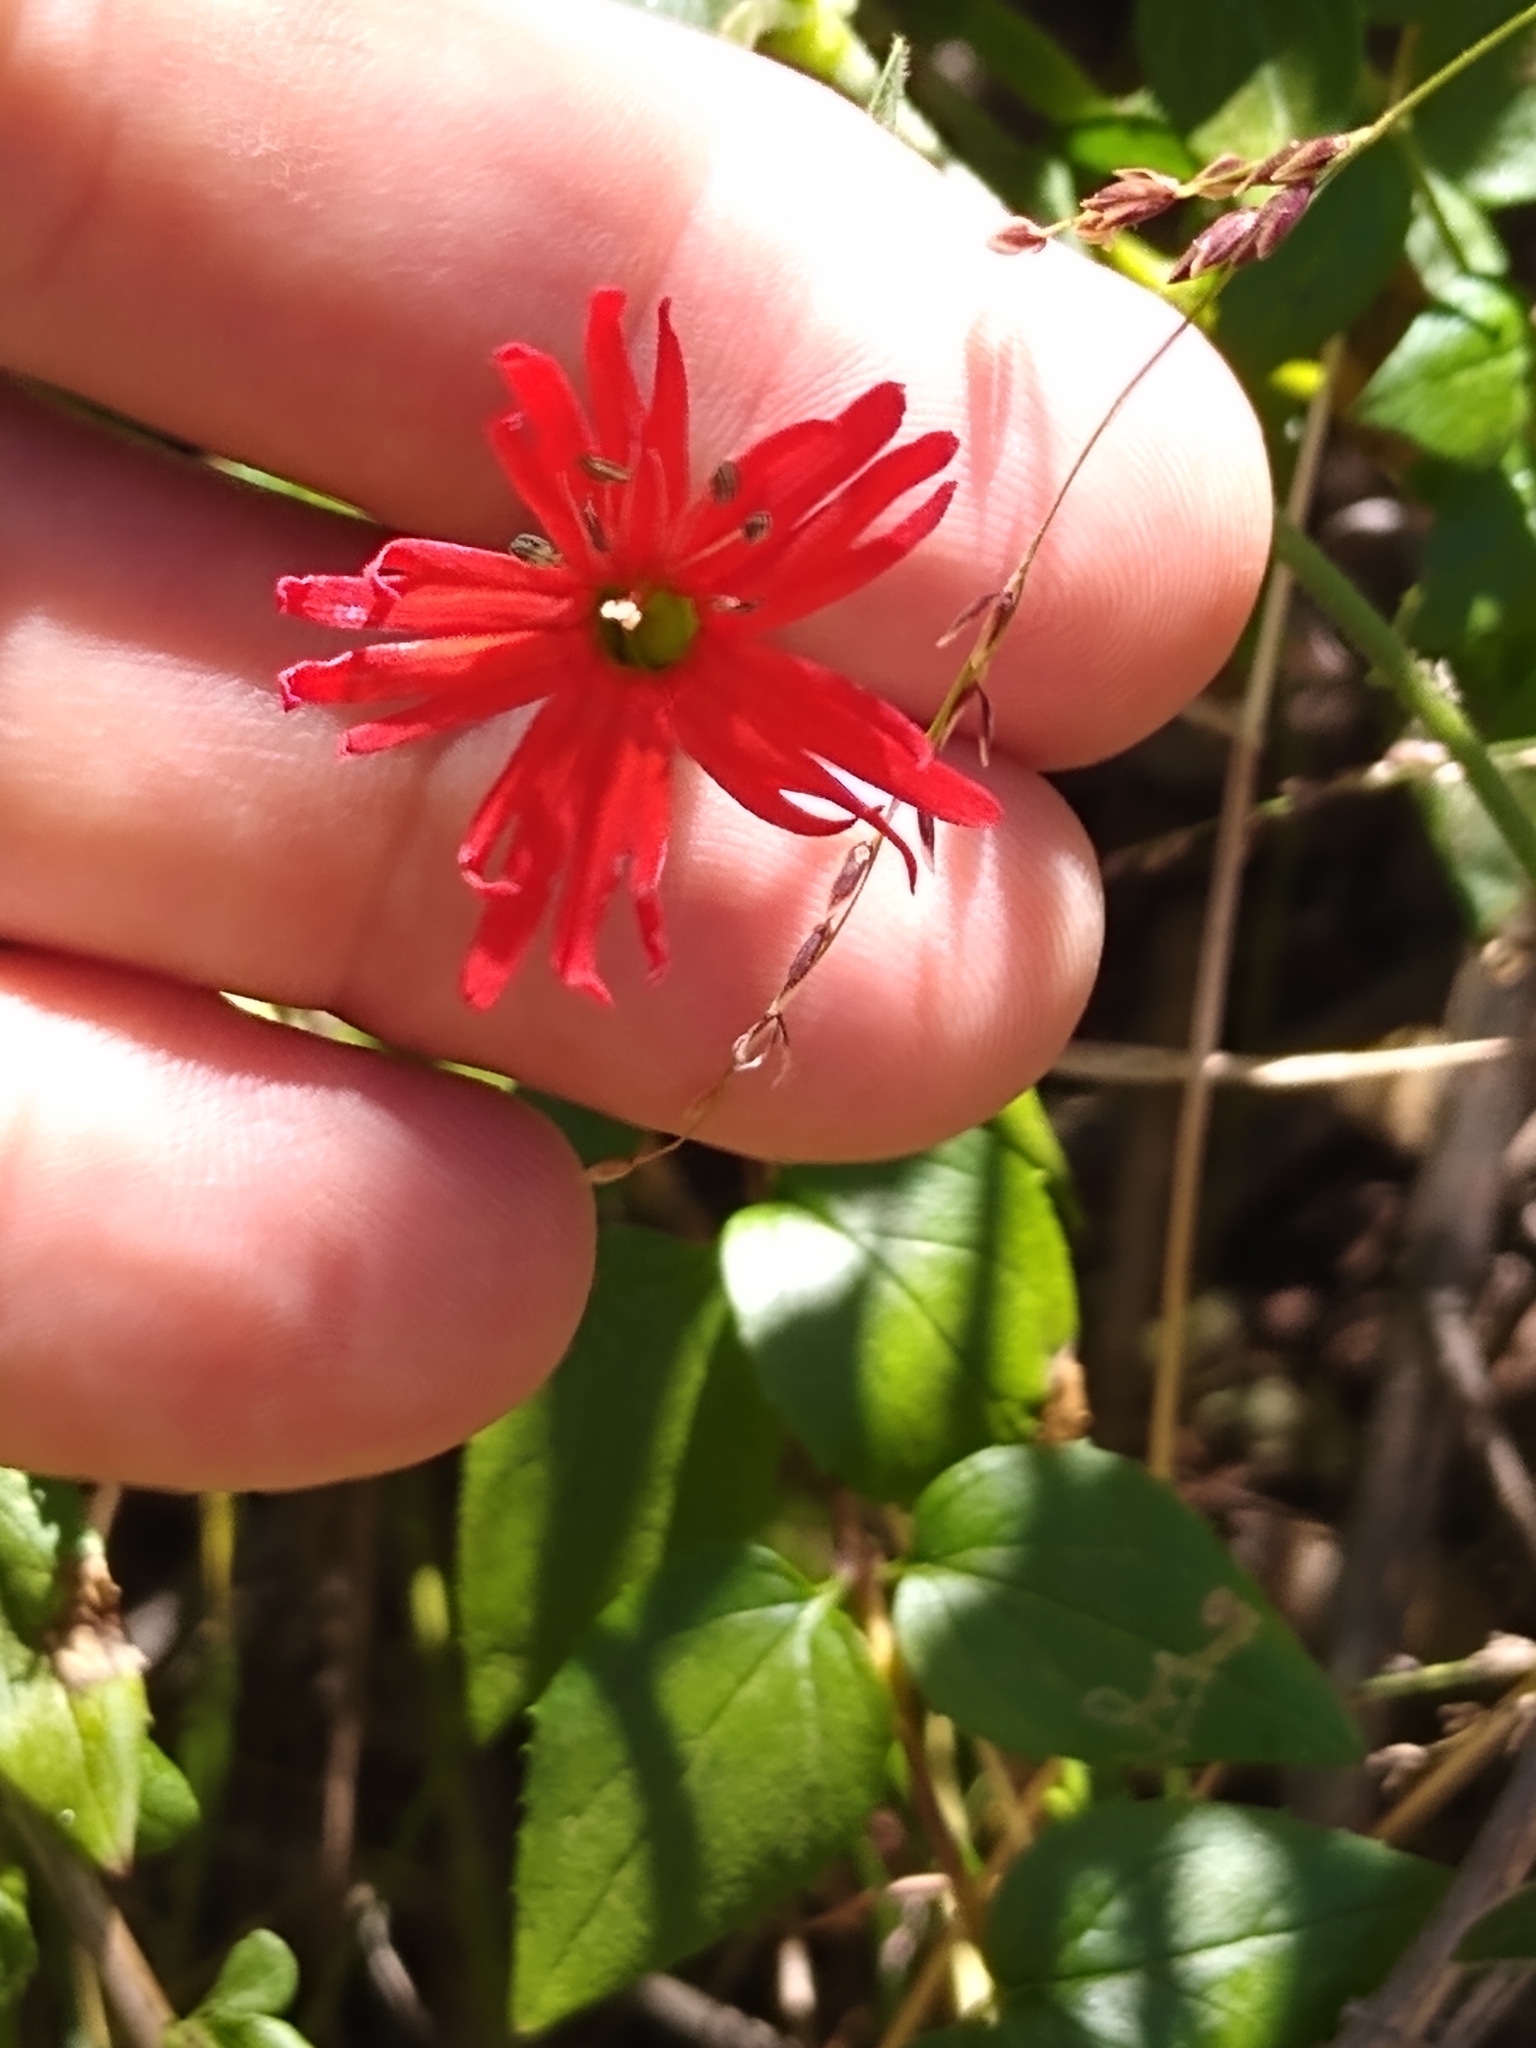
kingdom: Plantae
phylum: Tracheophyta
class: Magnoliopsida
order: Caryophyllales
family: Caryophyllaceae
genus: Silene
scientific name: Silene laciniata
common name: Indian-pink
